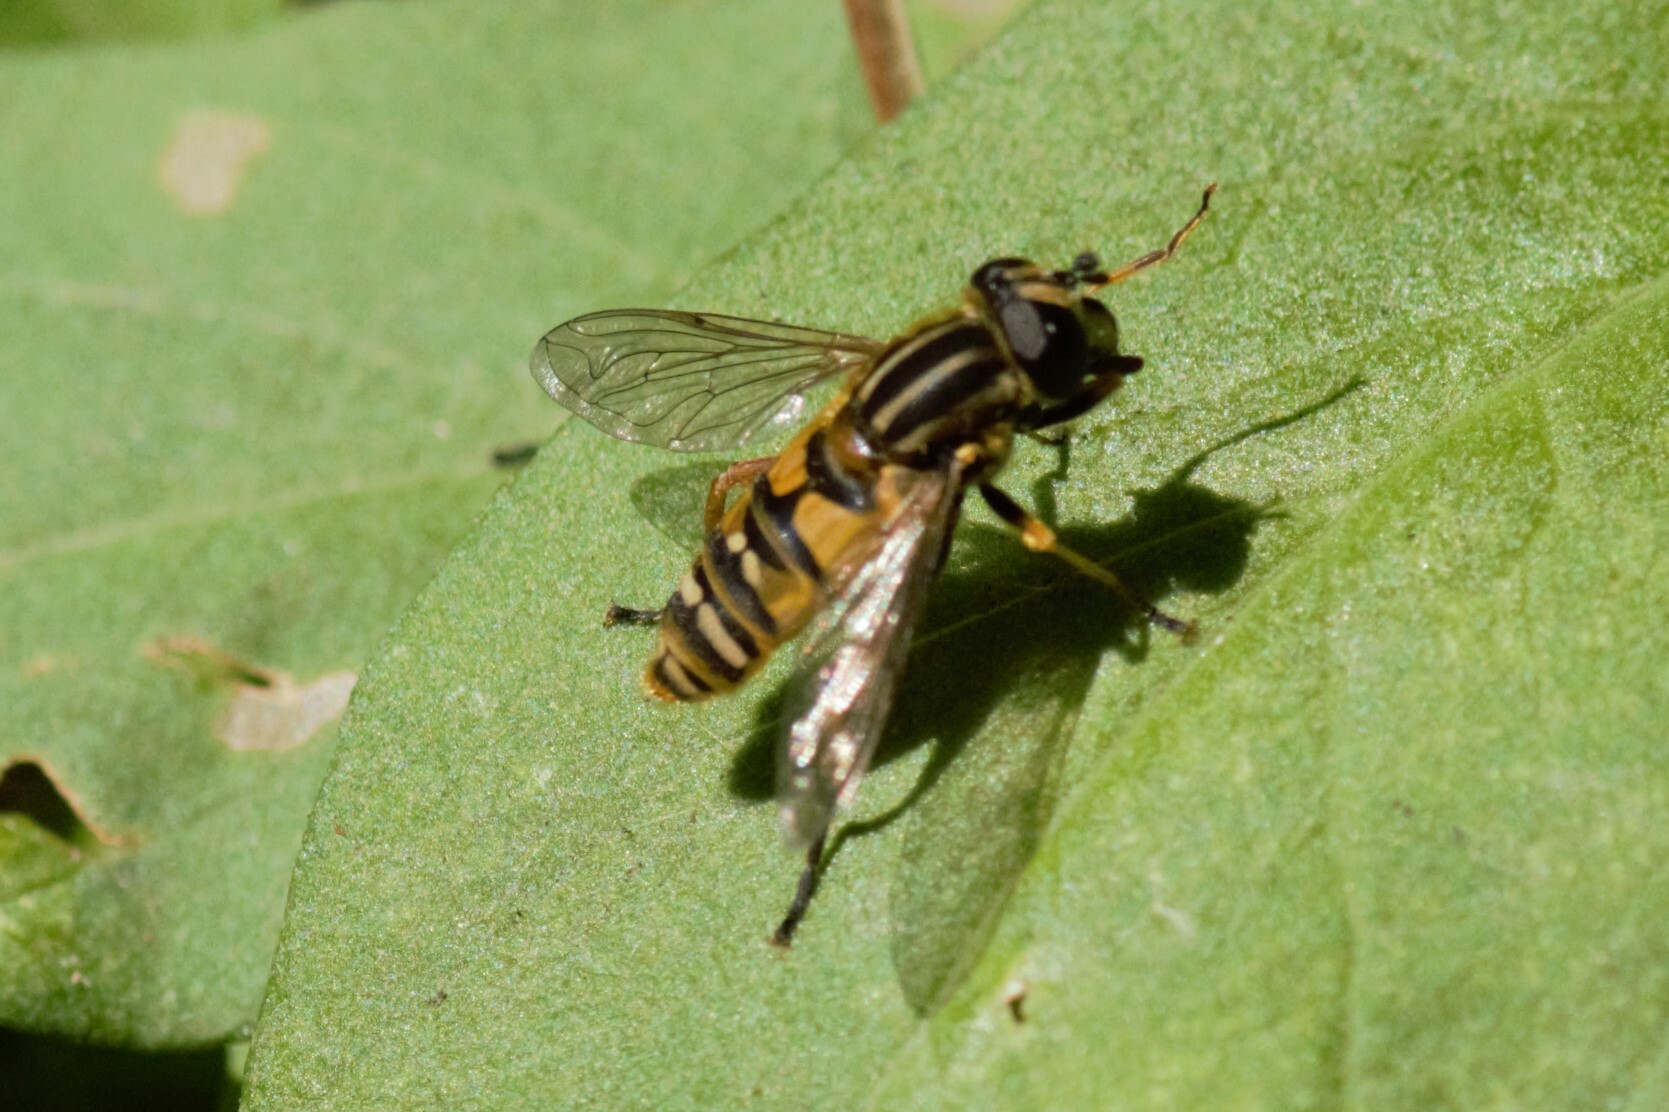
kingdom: Animalia
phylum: Arthropoda
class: Insecta
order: Diptera
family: Syrphidae
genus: Helophilus
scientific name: Helophilus pendulus
